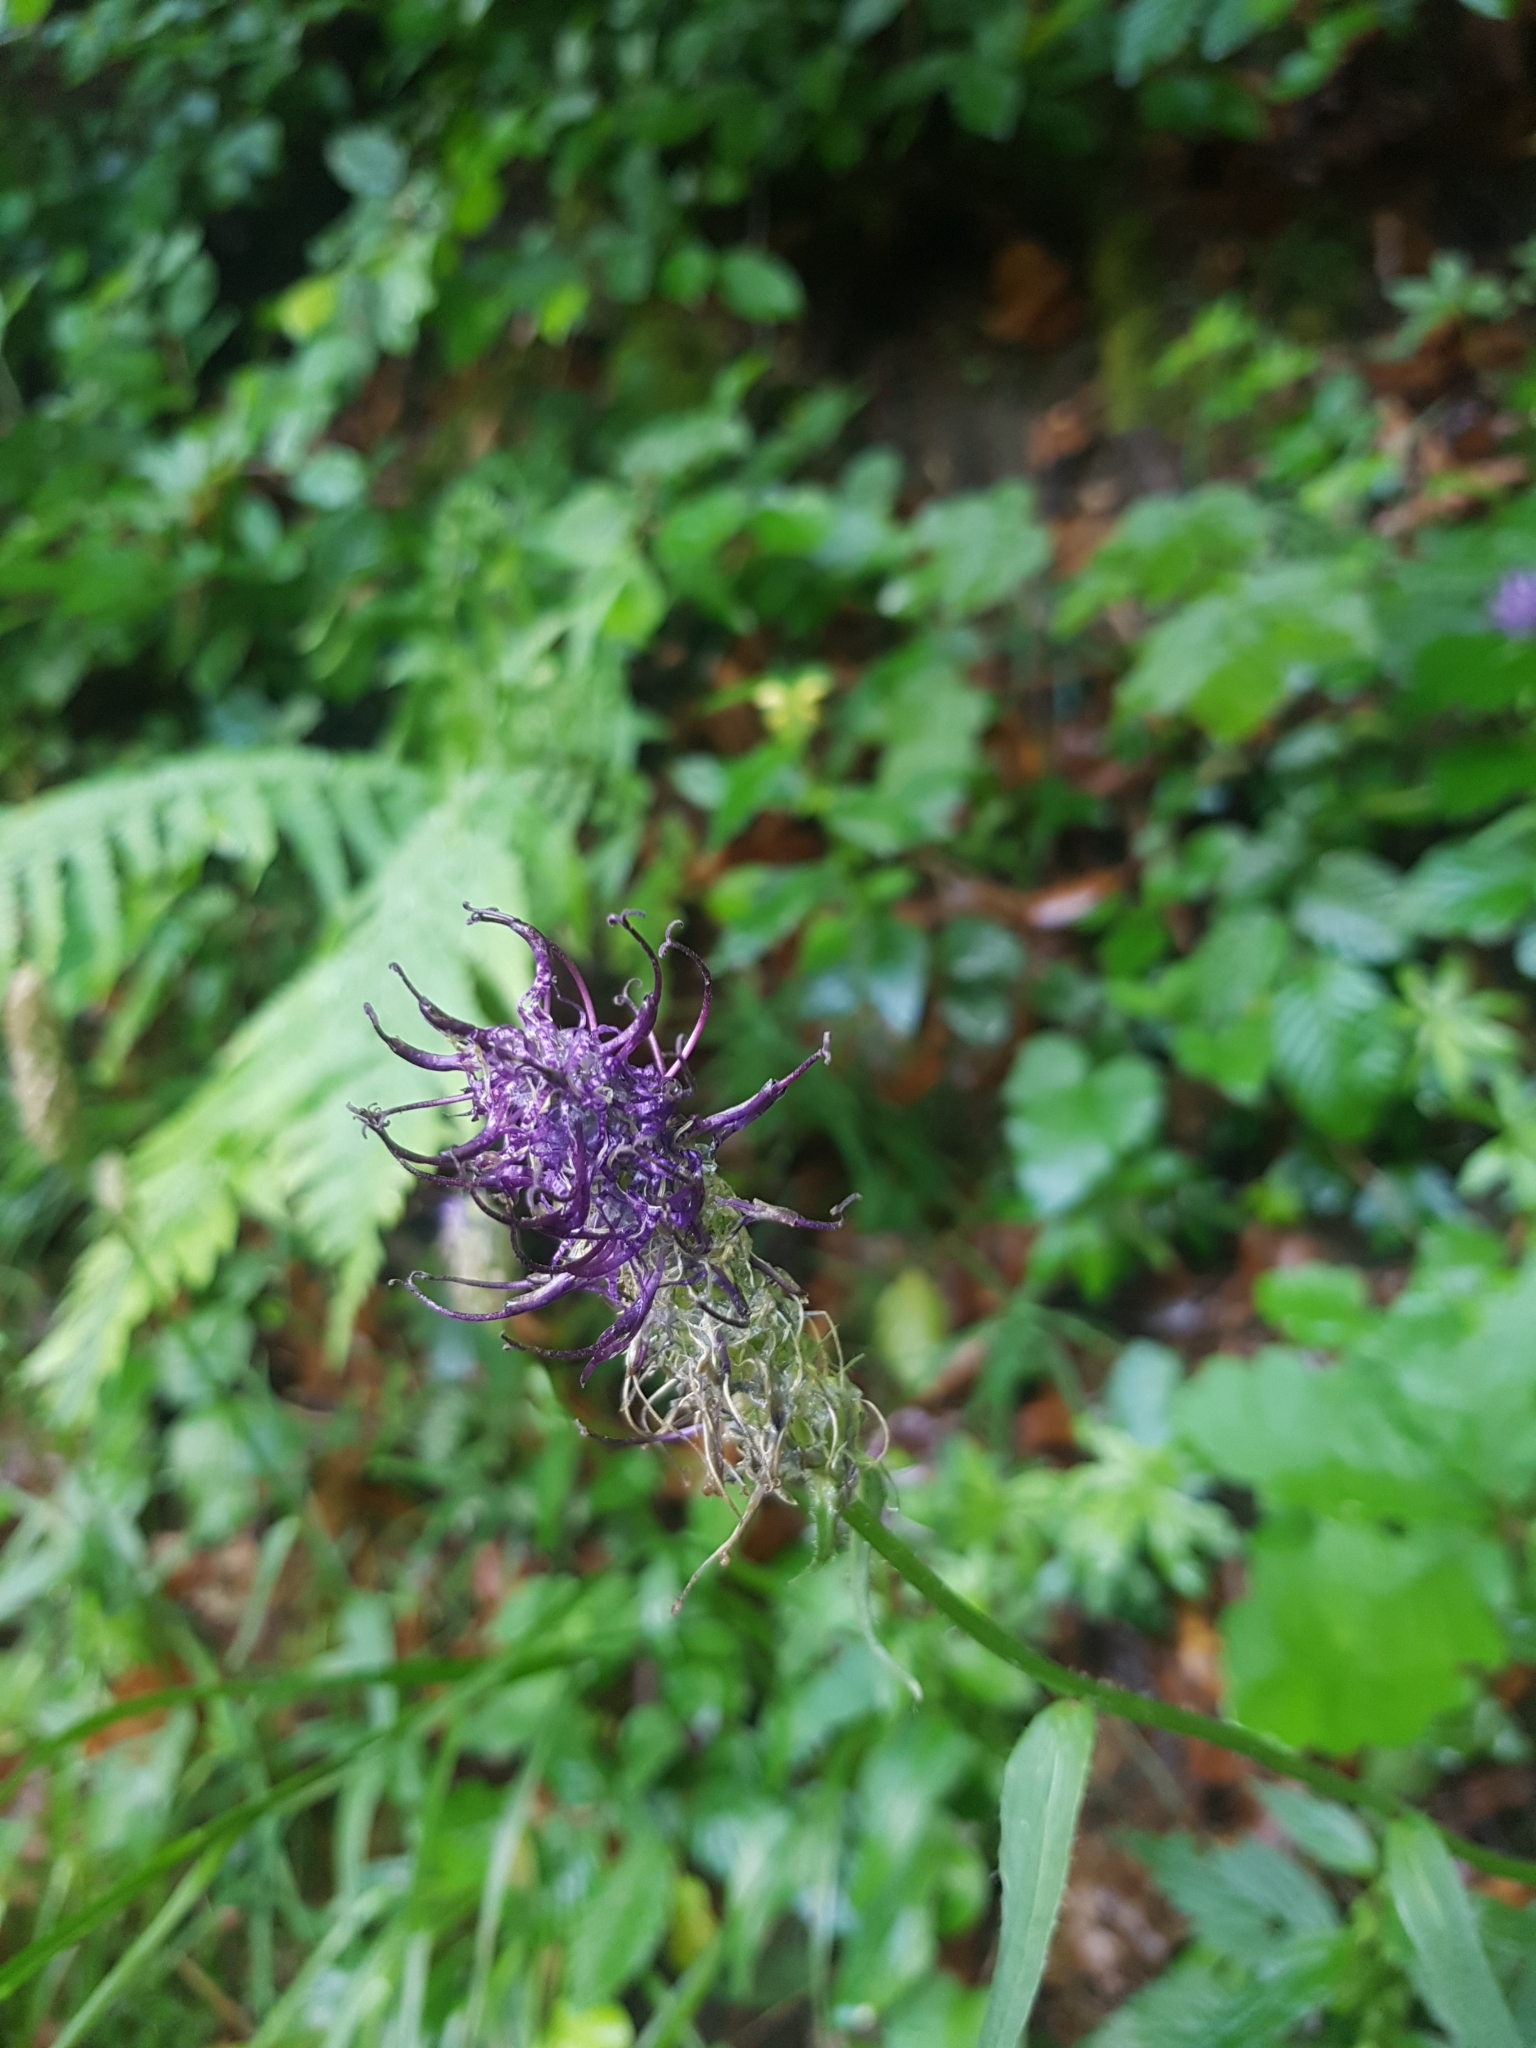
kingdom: Plantae
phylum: Tracheophyta
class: Magnoliopsida
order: Asterales
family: Campanulaceae
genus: Phyteuma
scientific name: Phyteuma nigrum
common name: Black rampion
